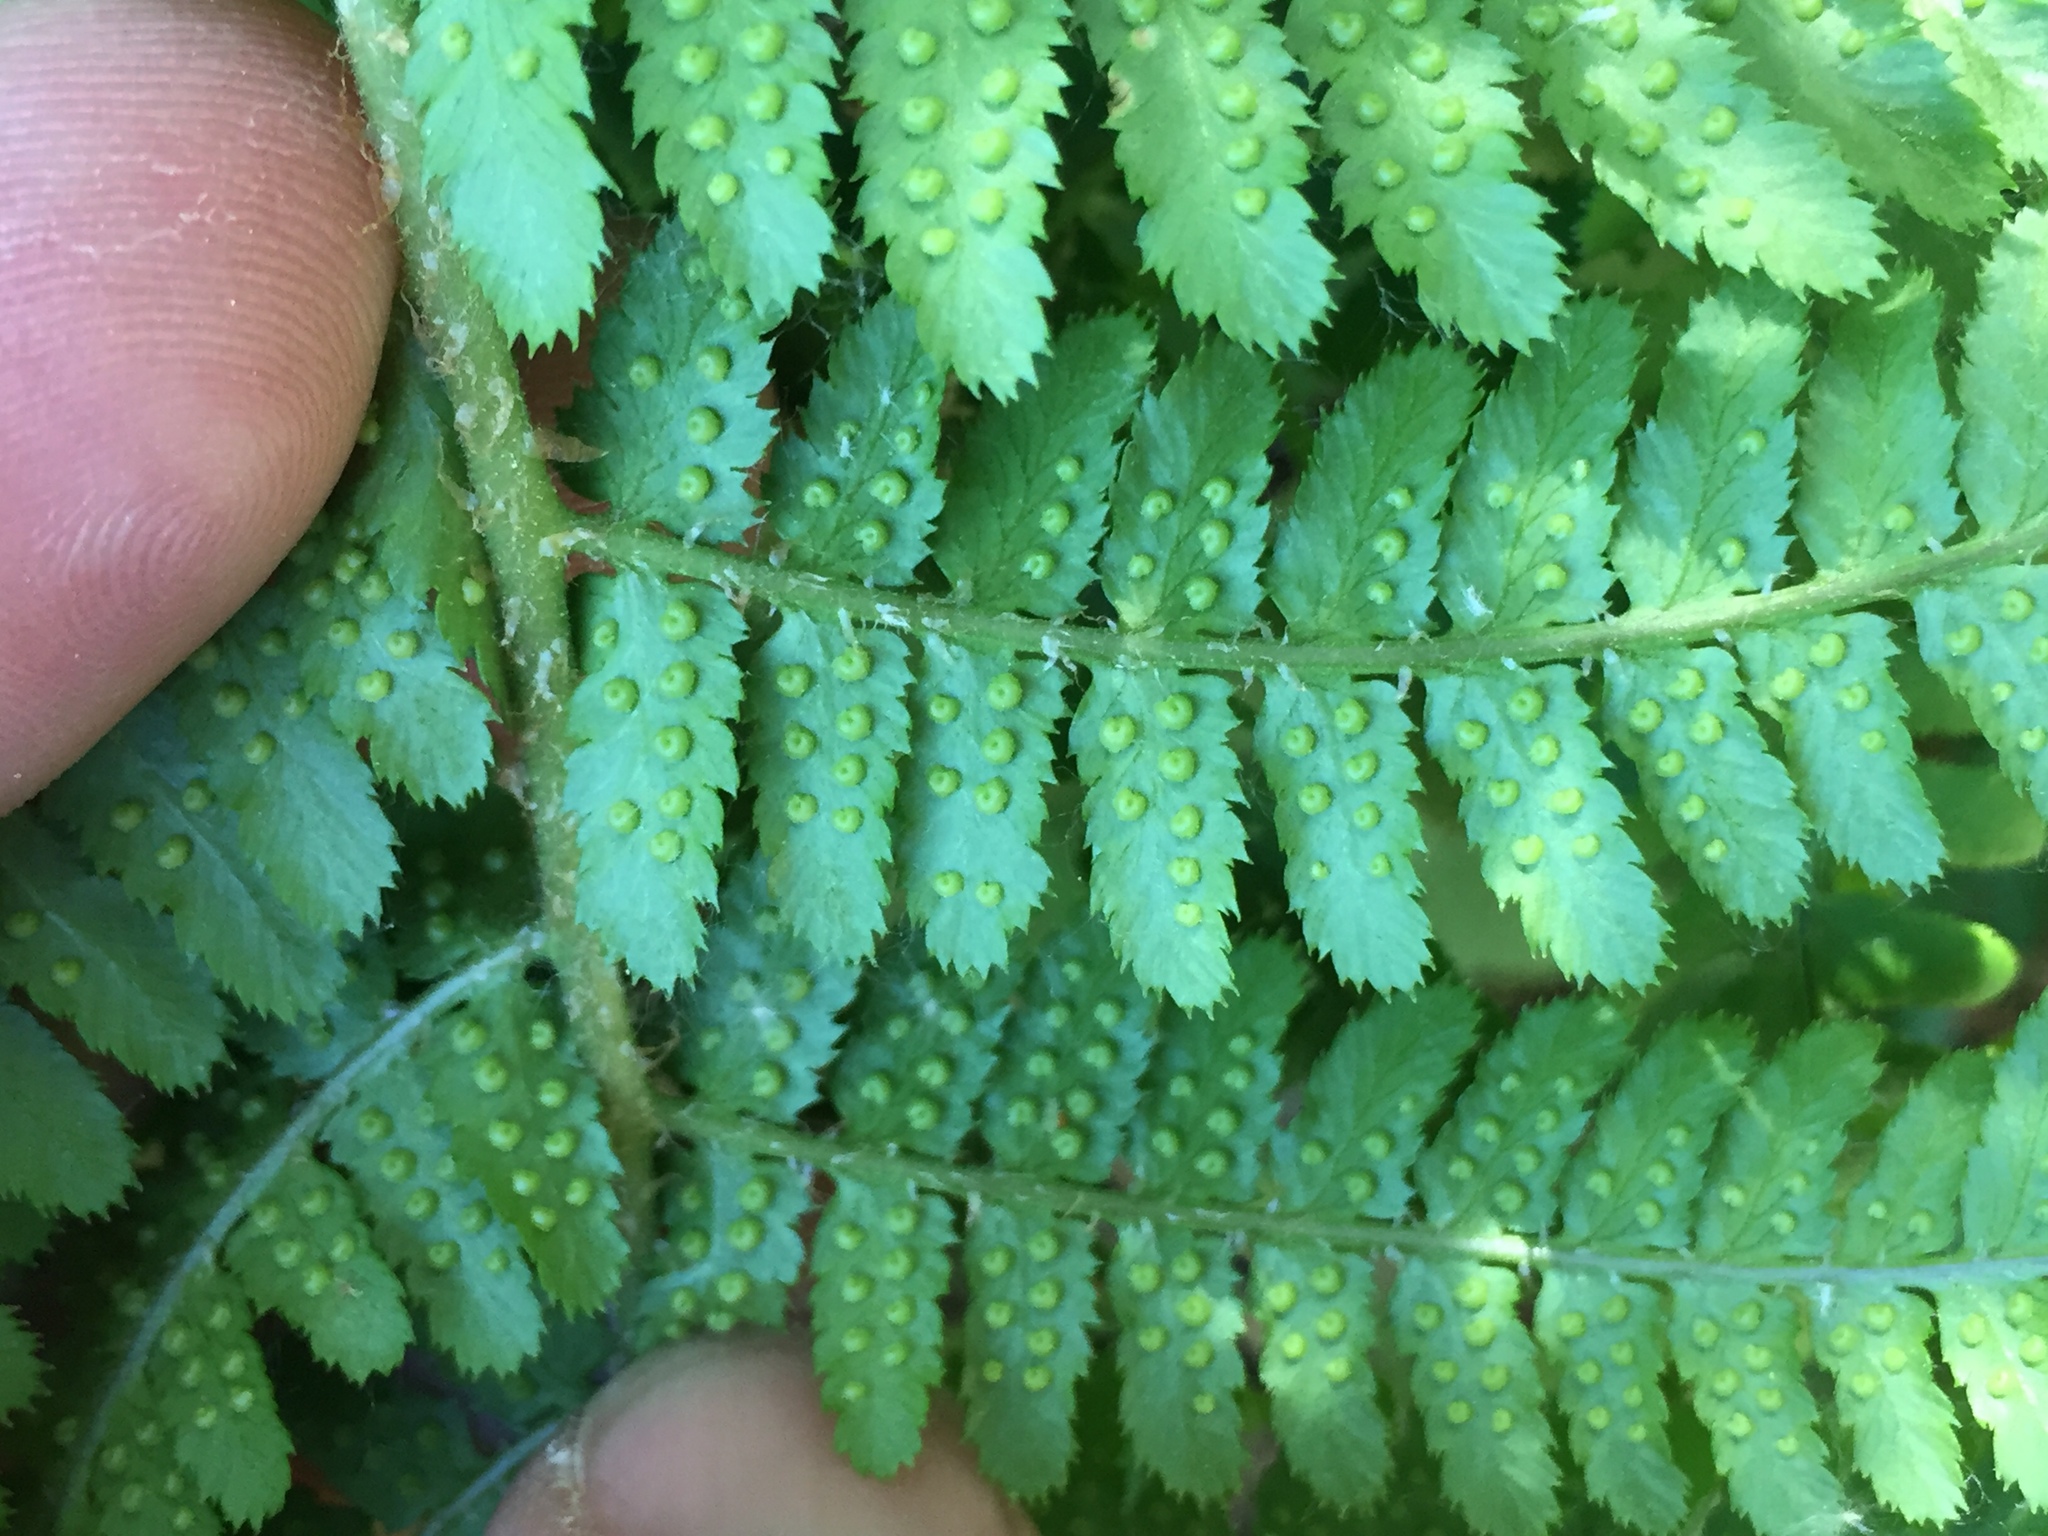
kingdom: Plantae
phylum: Tracheophyta
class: Polypodiopsida
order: Polypodiales
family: Dryopteridaceae
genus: Dryopteris
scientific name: Dryopteris arguta
